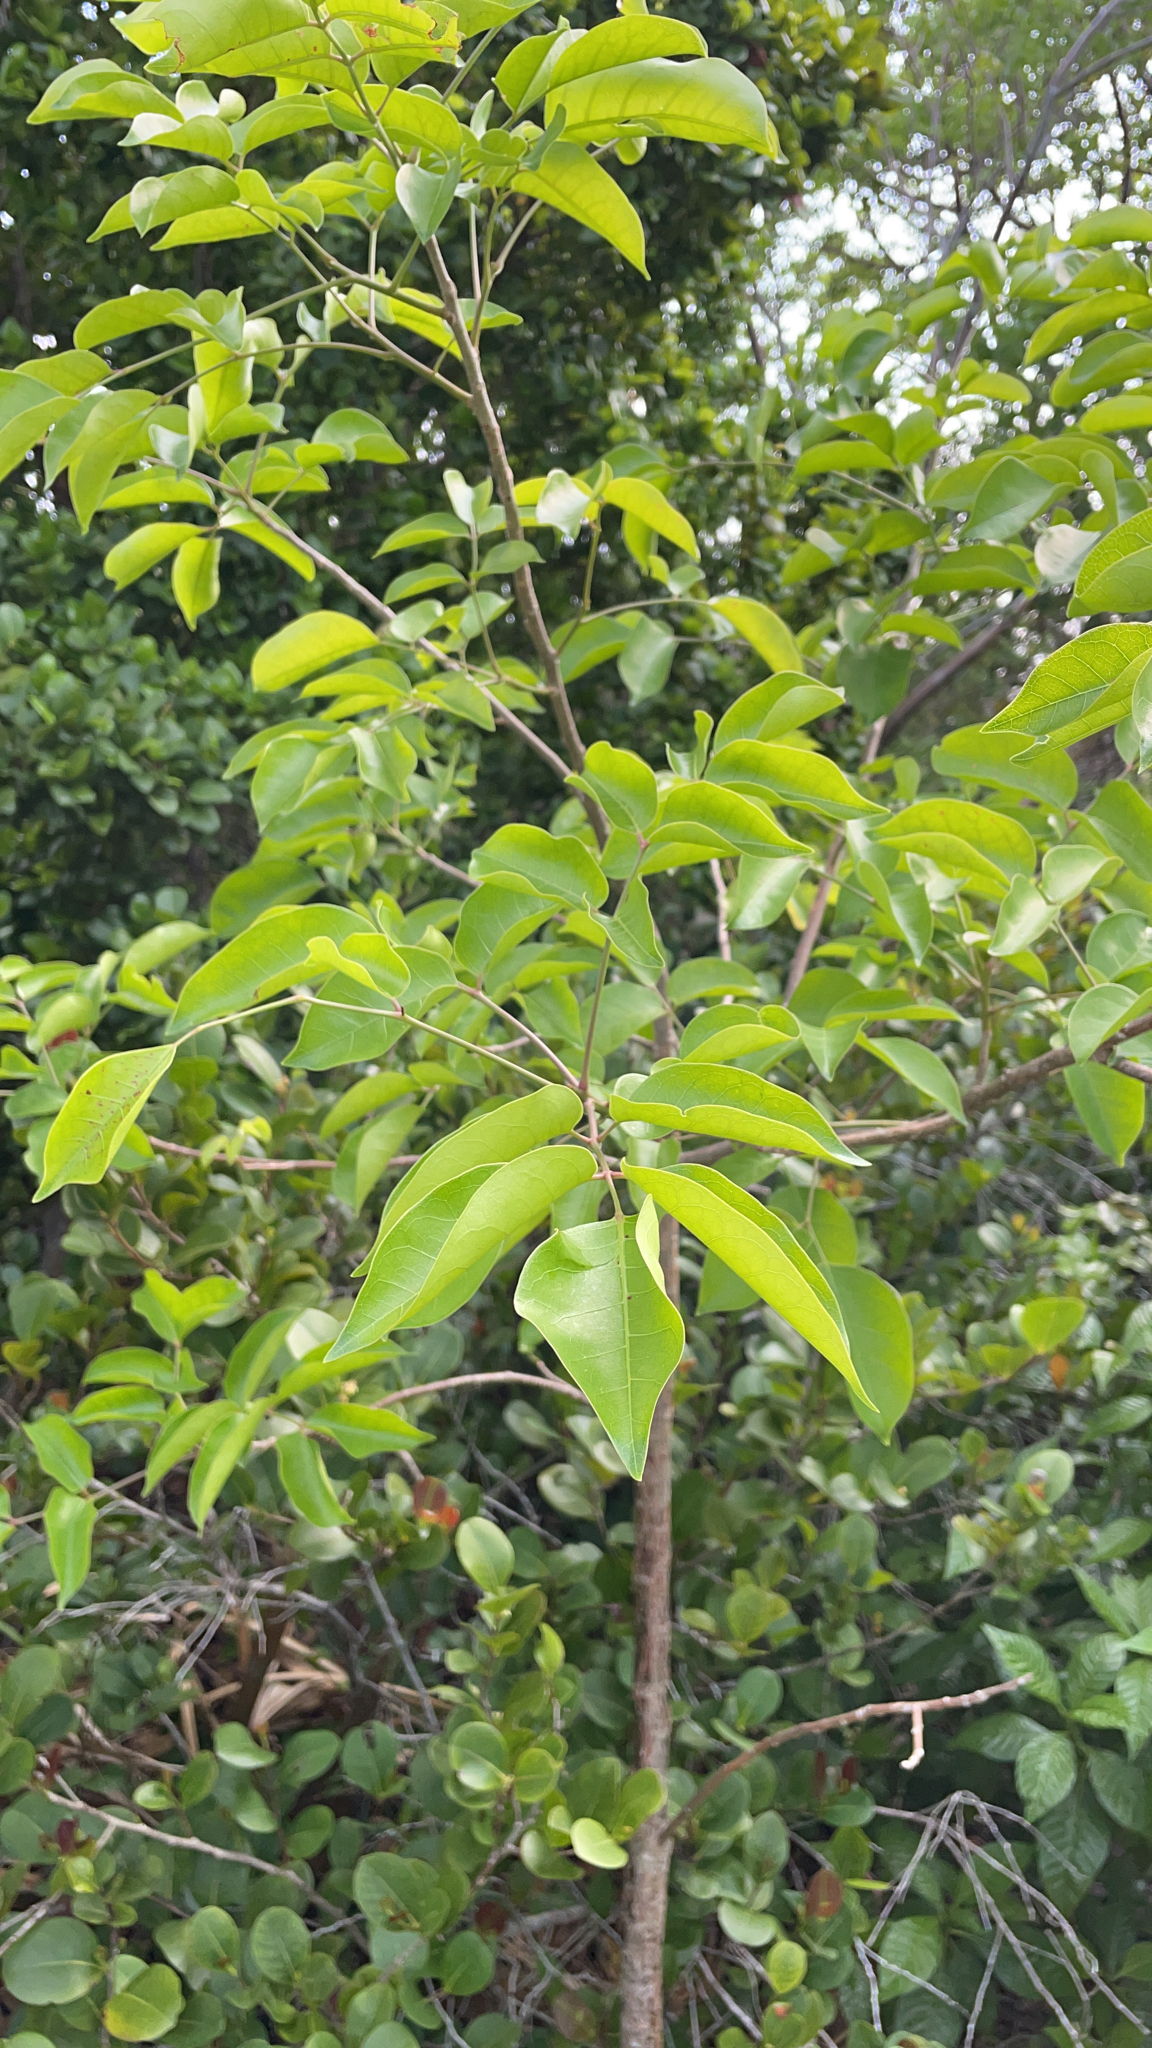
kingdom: Plantae
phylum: Tracheophyta
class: Magnoliopsida
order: Sapindales
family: Burseraceae
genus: Bursera
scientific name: Bursera simaruba
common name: Turpentine tree
